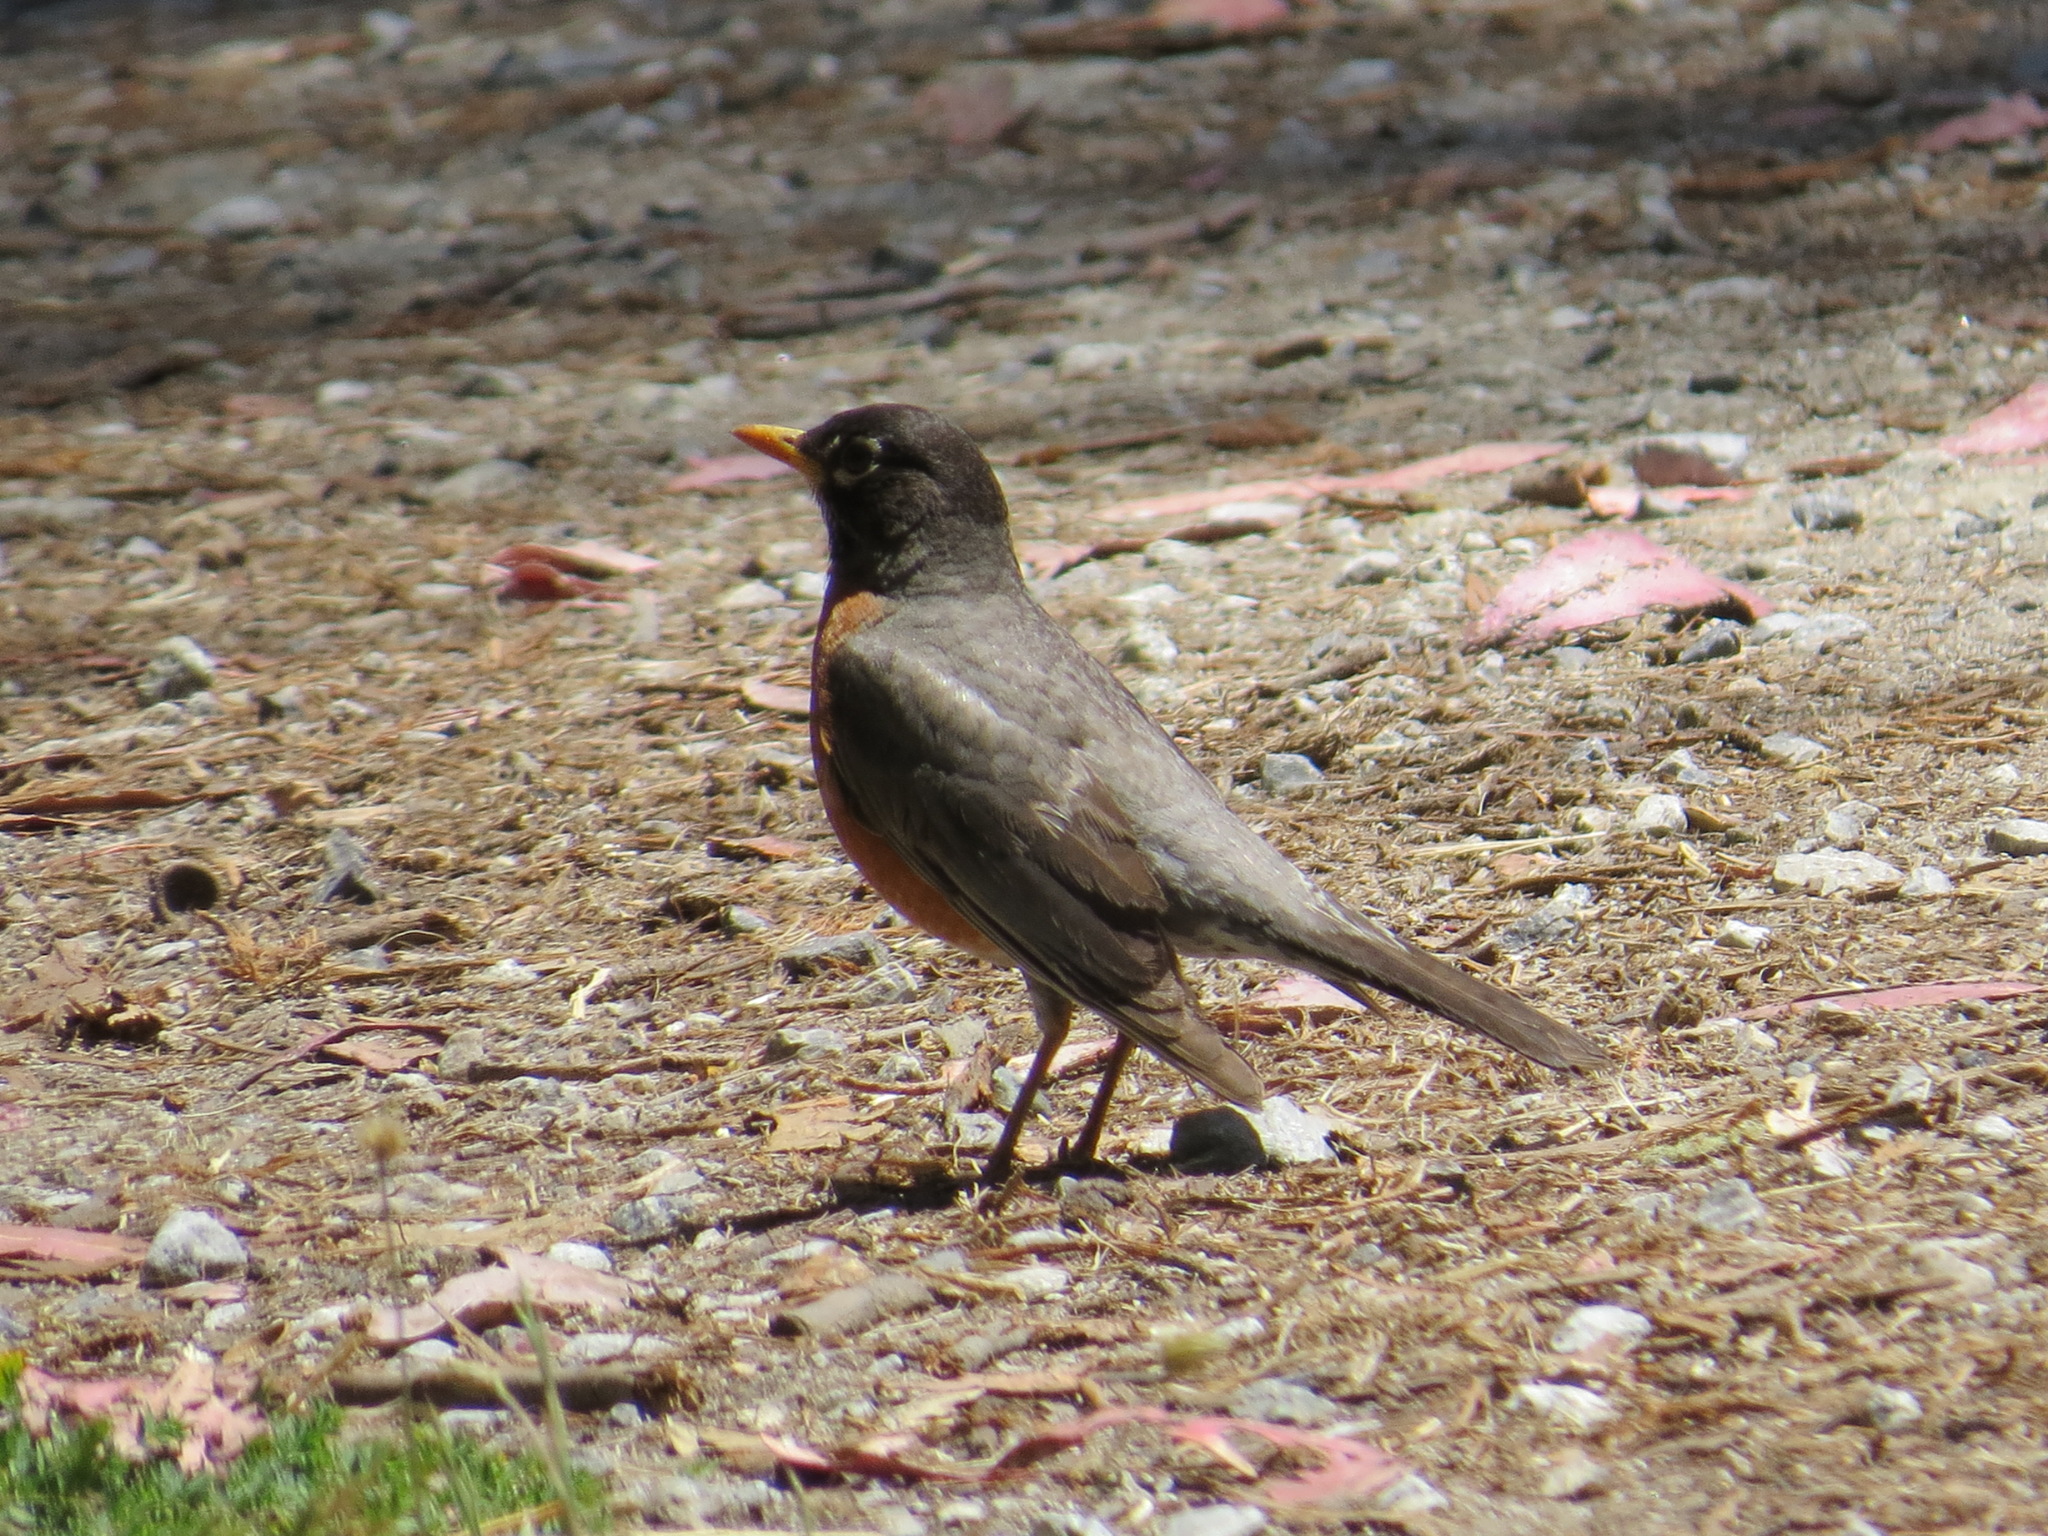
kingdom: Animalia
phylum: Chordata
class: Aves
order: Passeriformes
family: Turdidae
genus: Turdus
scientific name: Turdus migratorius
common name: American robin
